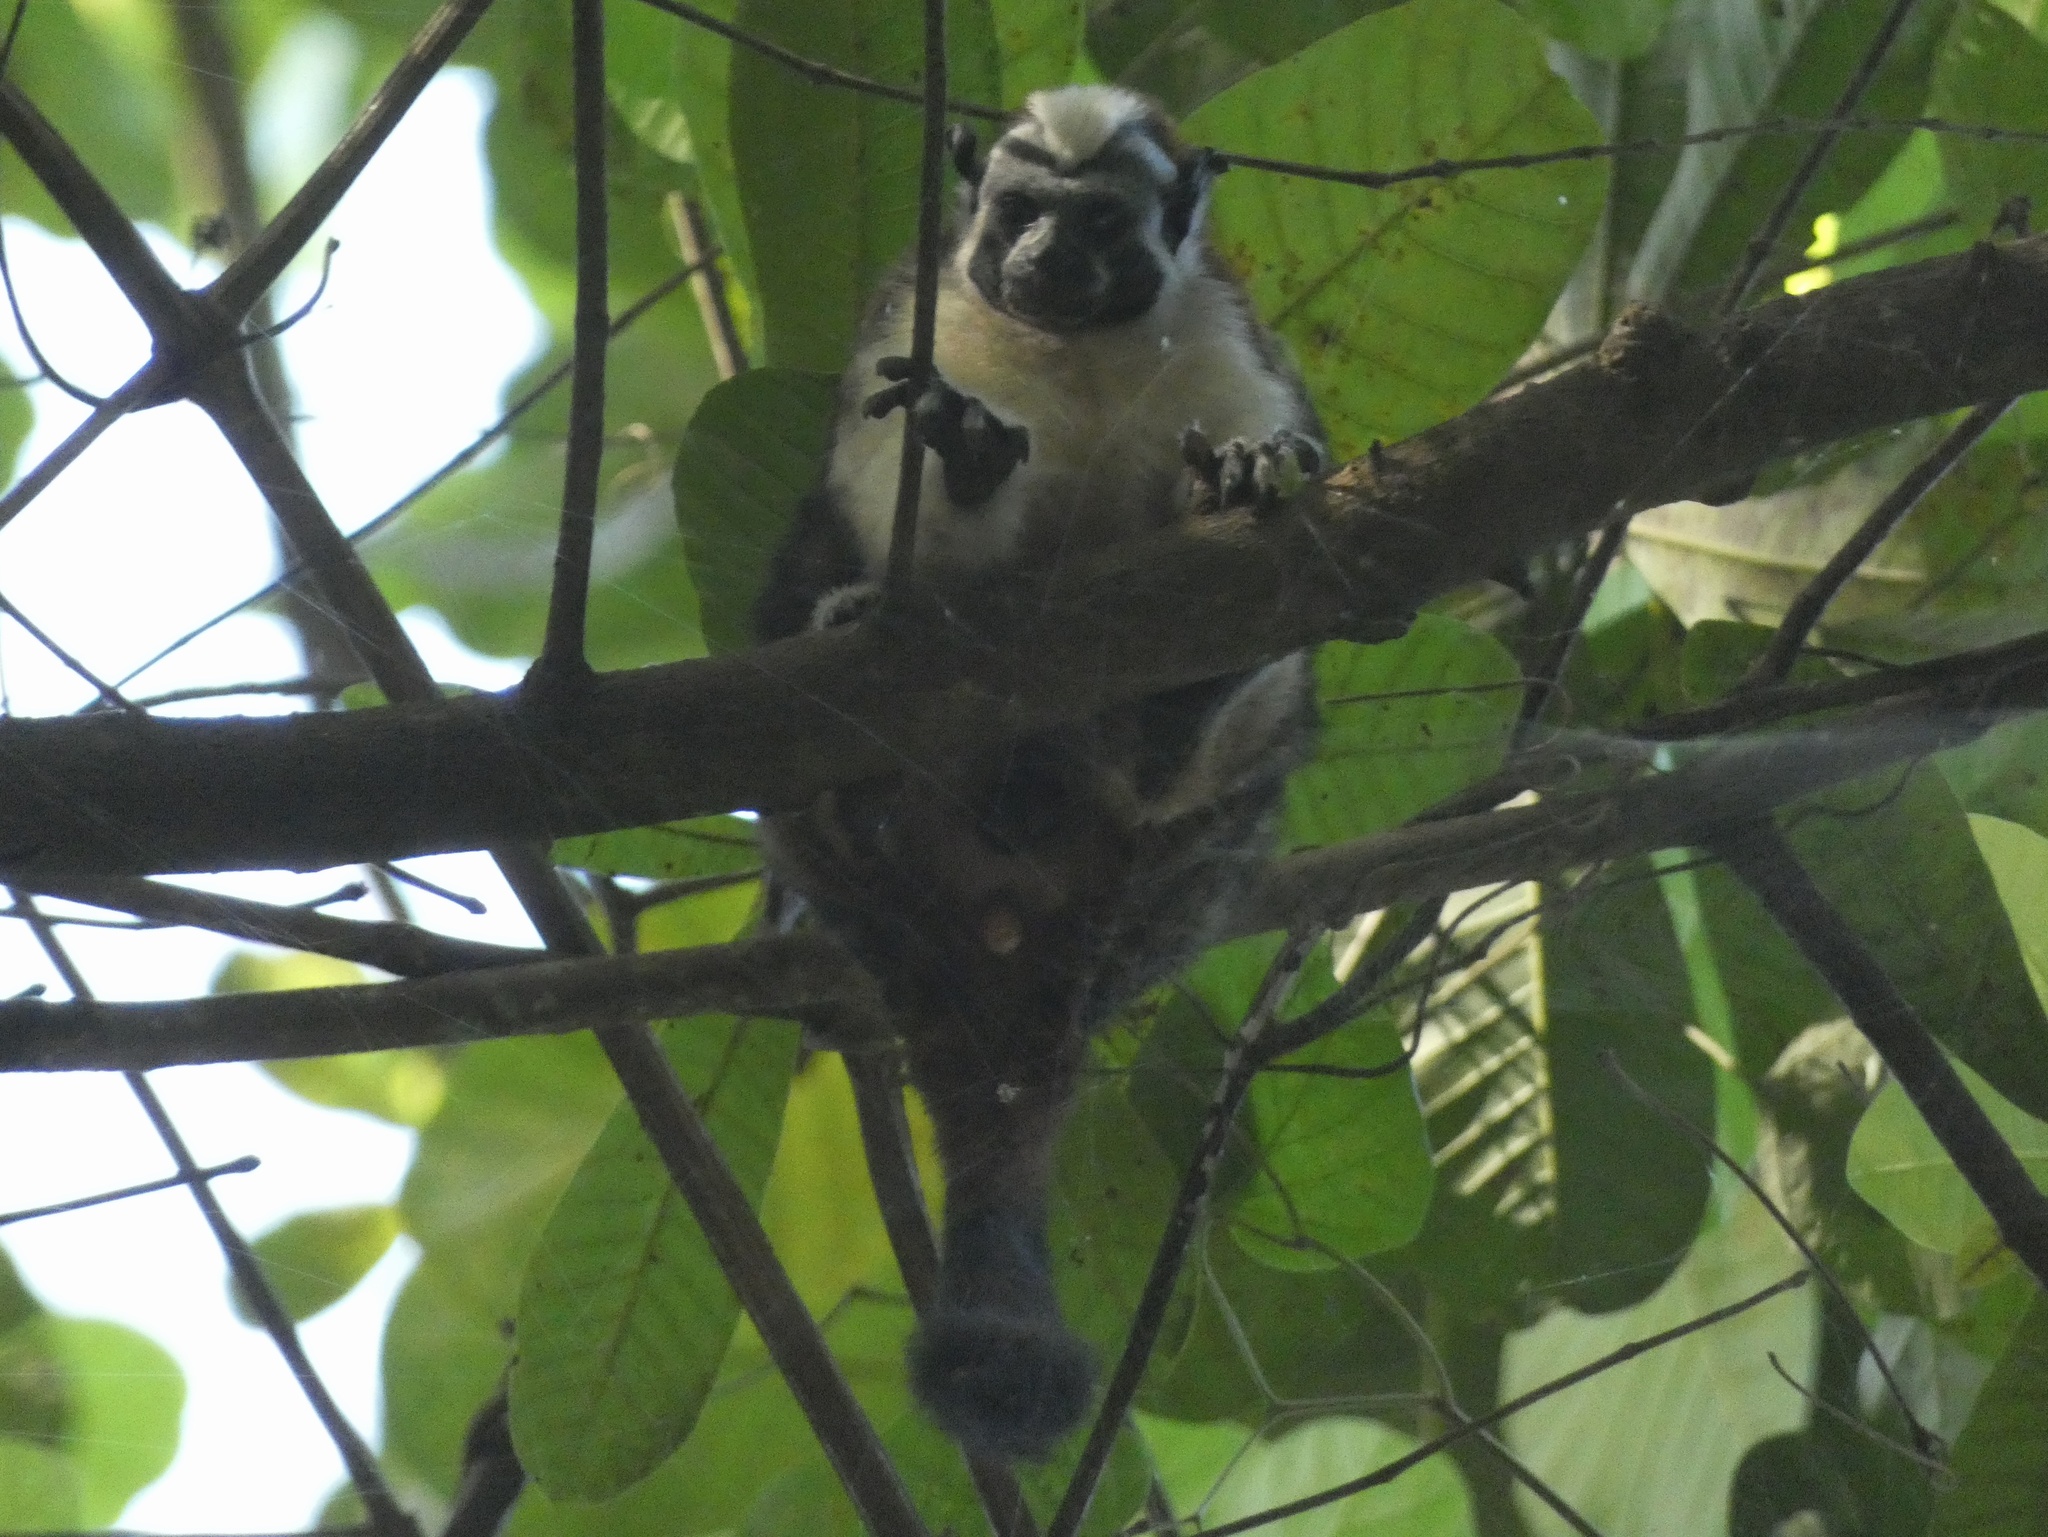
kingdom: Animalia
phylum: Chordata
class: Mammalia
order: Primates
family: Callitrichidae
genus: Saguinus
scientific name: Saguinus geoffroyi
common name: Geoffroy s tamarin
